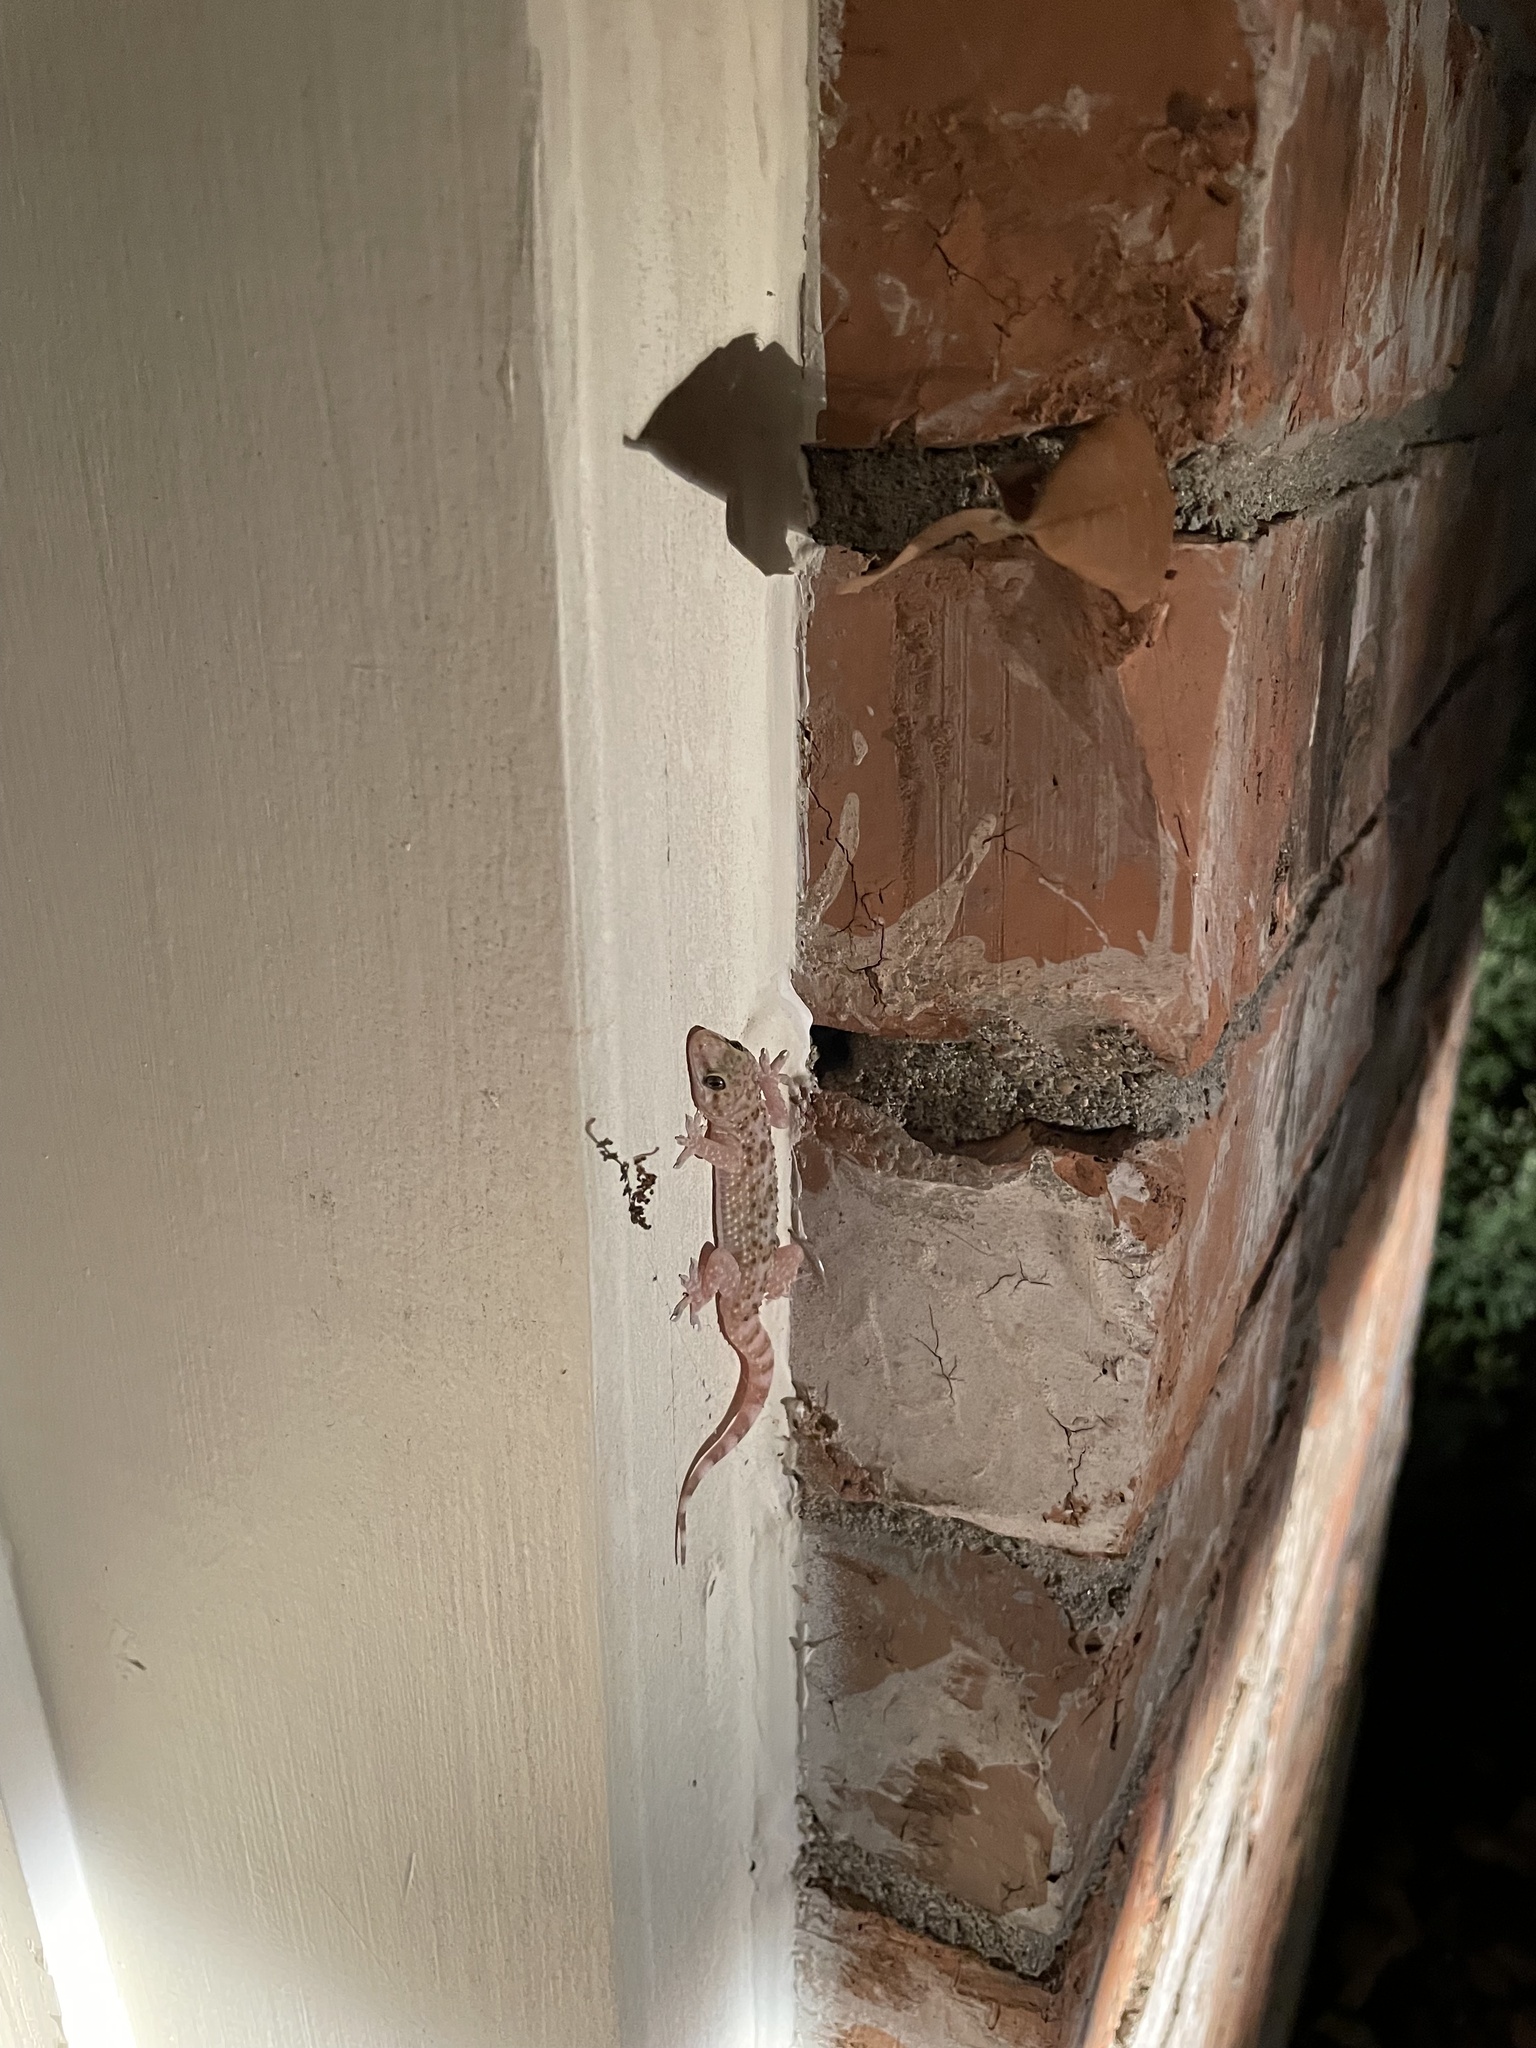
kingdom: Animalia
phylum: Chordata
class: Squamata
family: Gekkonidae
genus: Hemidactylus
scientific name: Hemidactylus turcicus
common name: Turkish gecko
